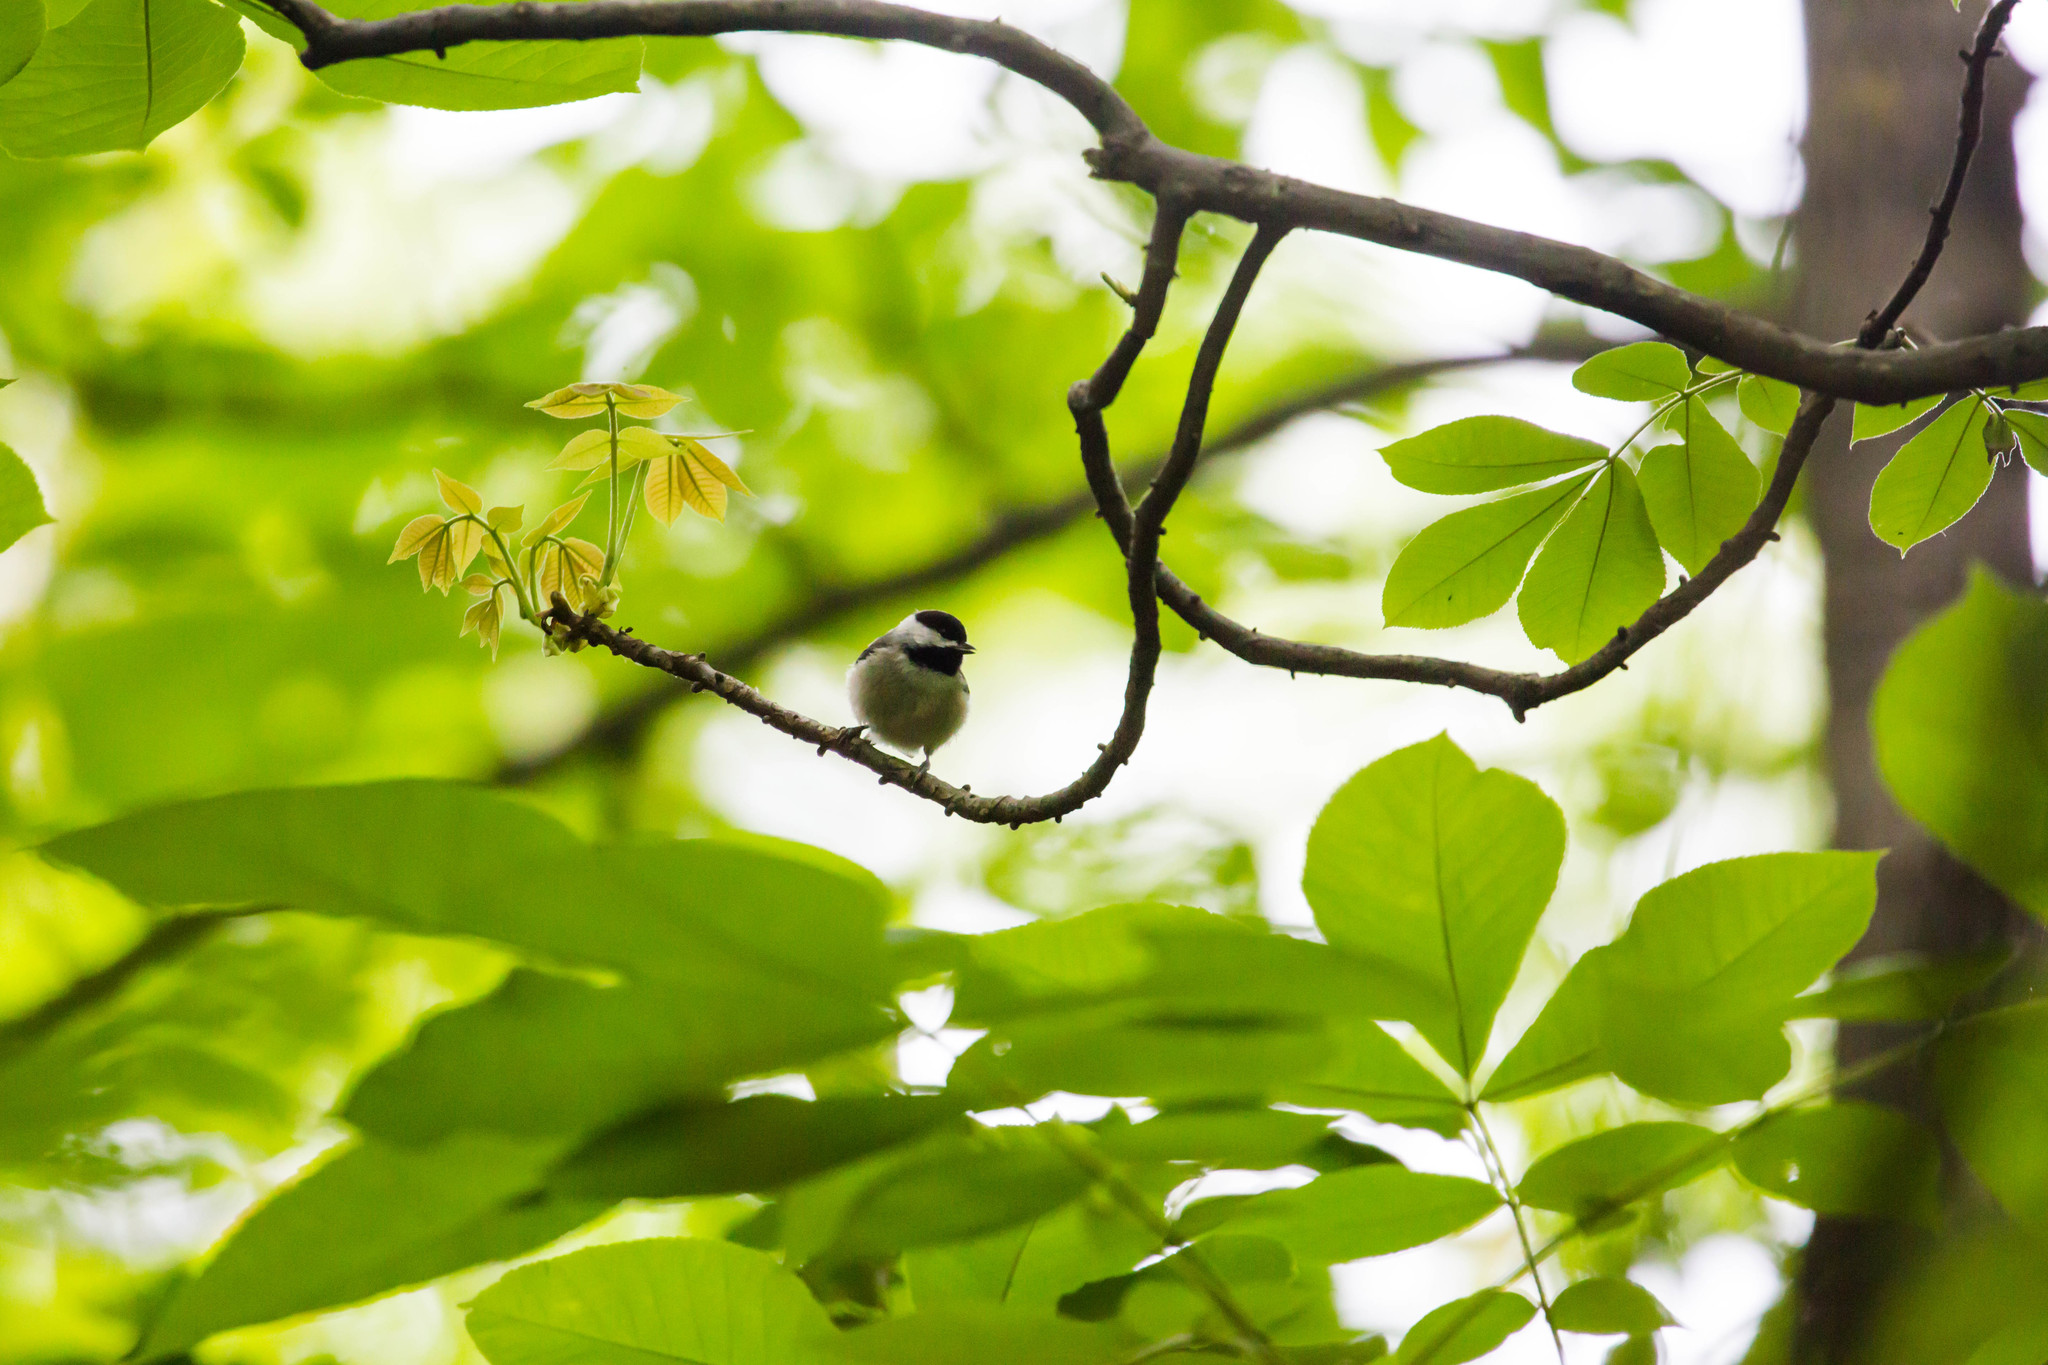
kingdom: Animalia
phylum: Chordata
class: Aves
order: Passeriformes
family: Paridae
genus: Poecile
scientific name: Poecile carolinensis
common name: Carolina chickadee
